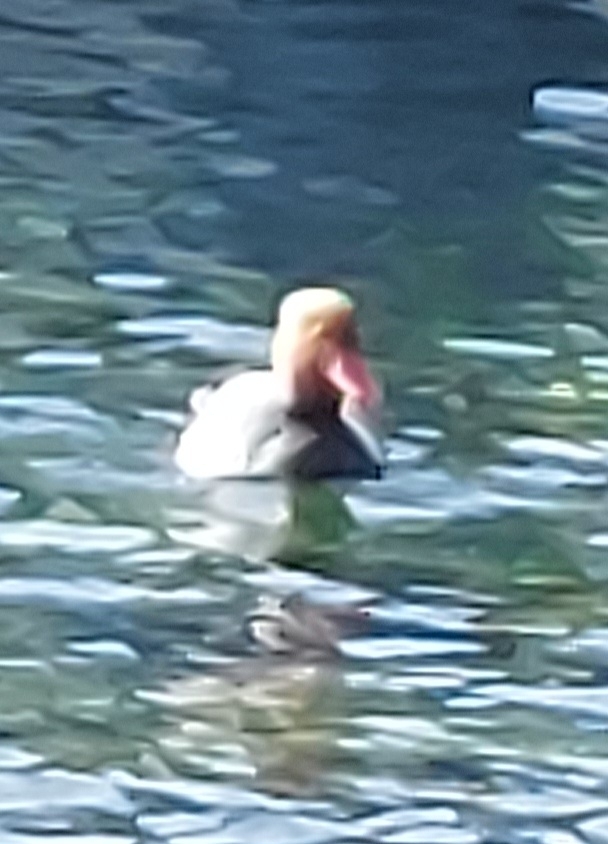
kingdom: Animalia
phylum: Chordata
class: Aves
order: Anseriformes
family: Anatidae
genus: Netta
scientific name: Netta rufina
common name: Red-crested pochard
